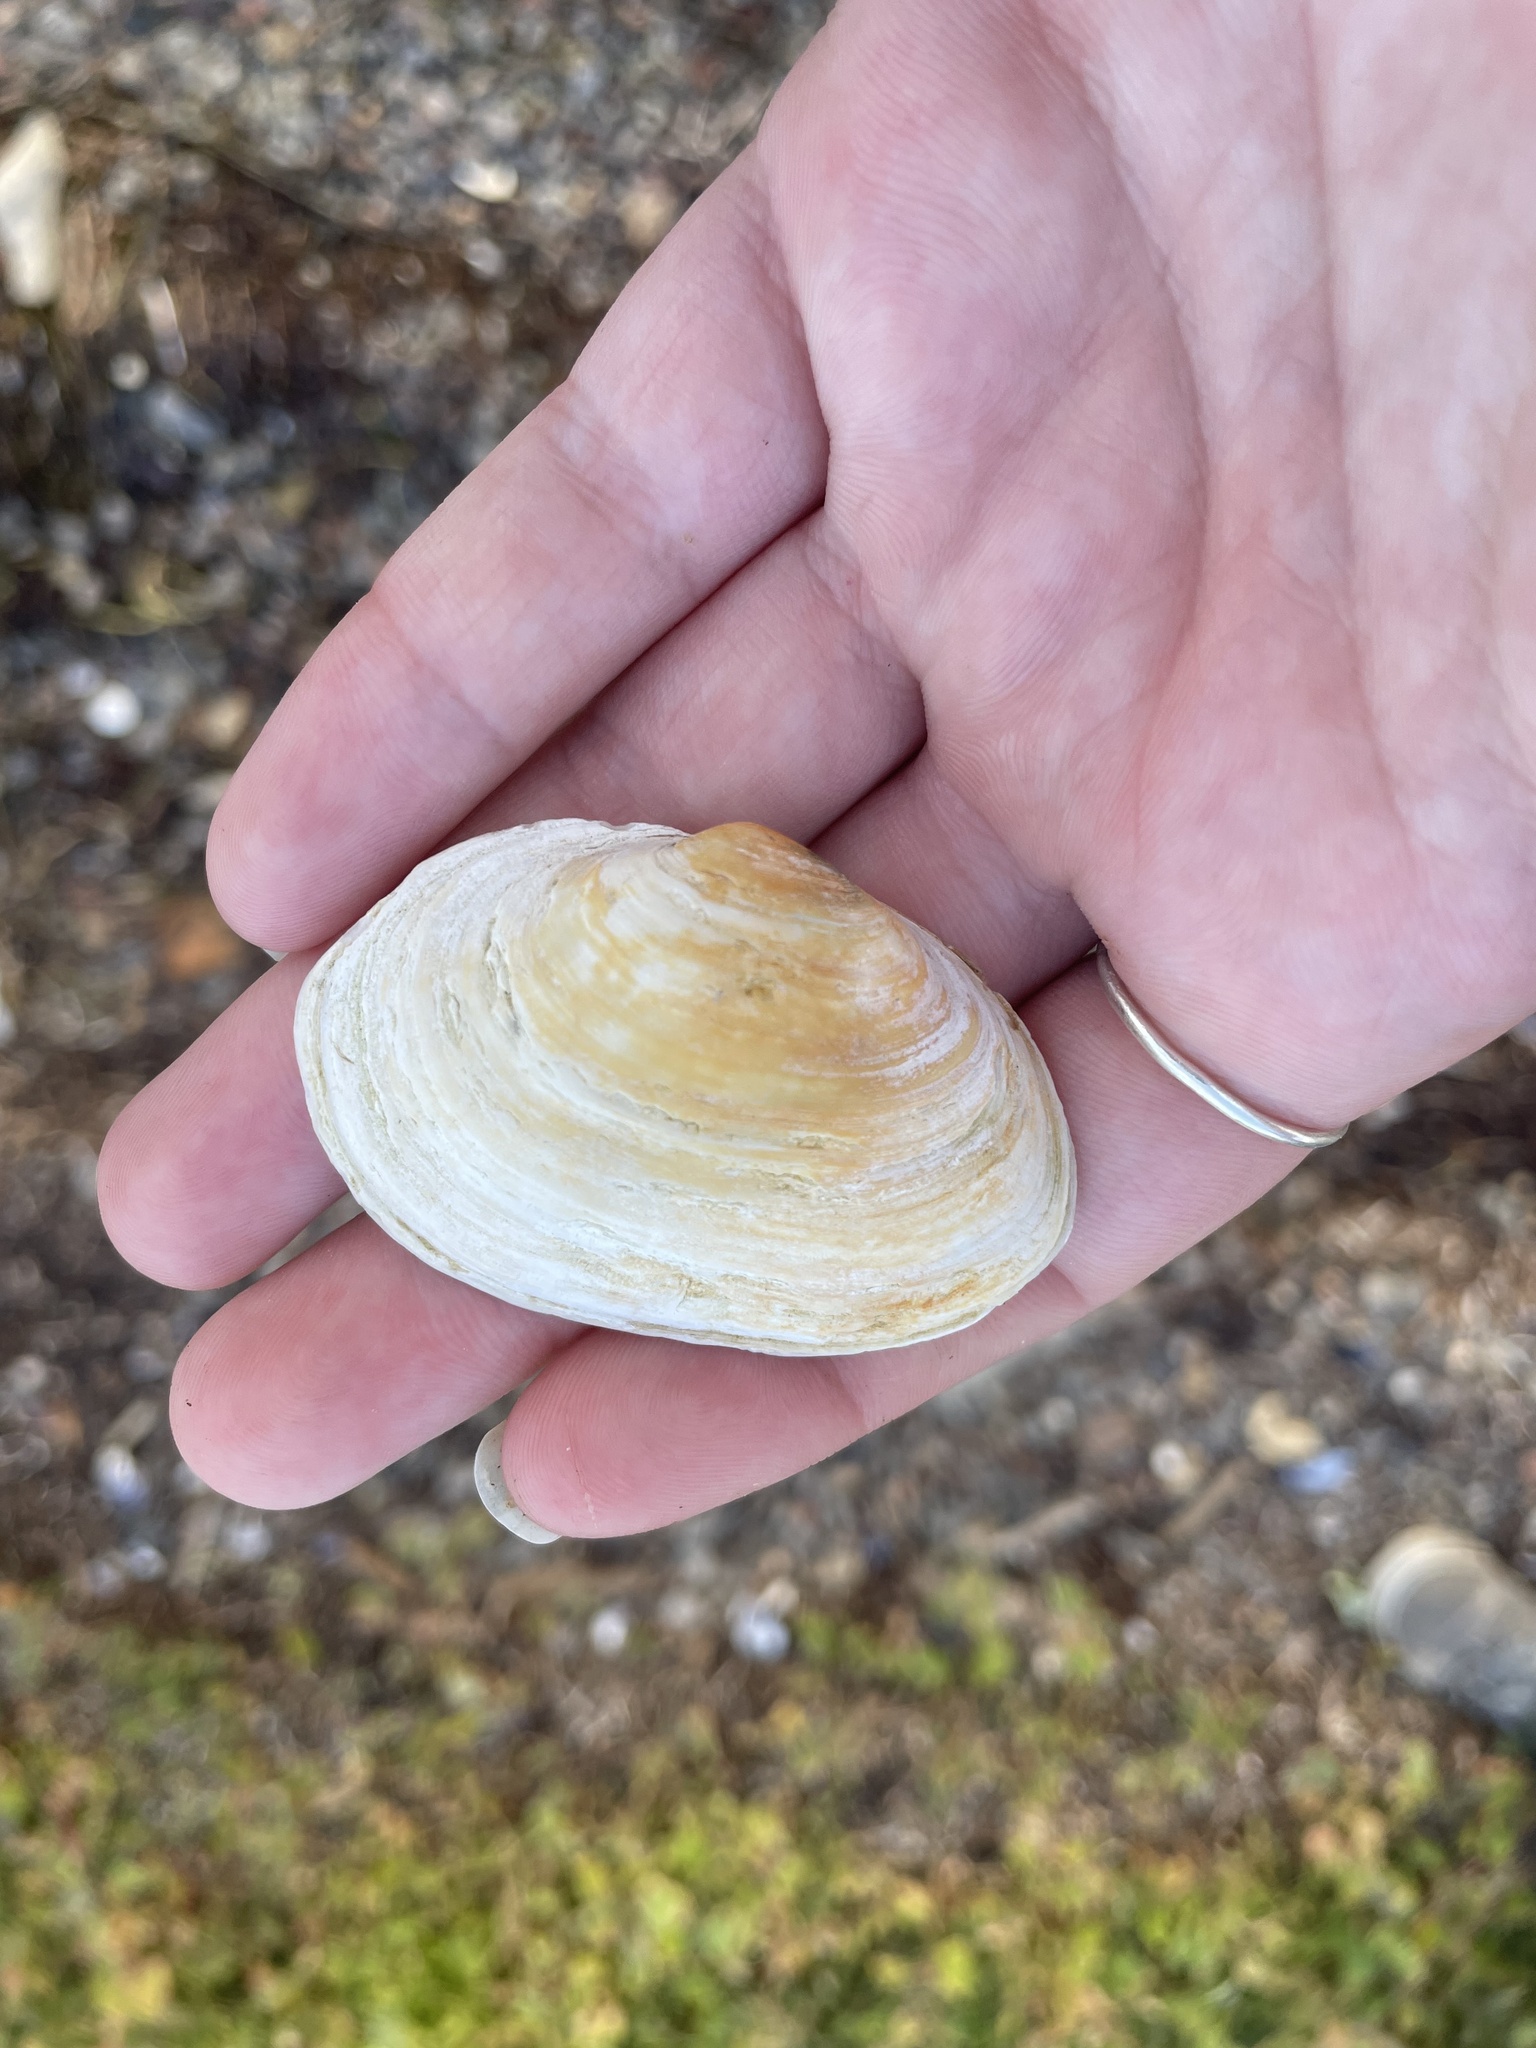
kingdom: Animalia
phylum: Mollusca
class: Bivalvia
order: Myida
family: Myidae
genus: Mya
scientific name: Mya arenaria
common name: Soft-shelled clam
